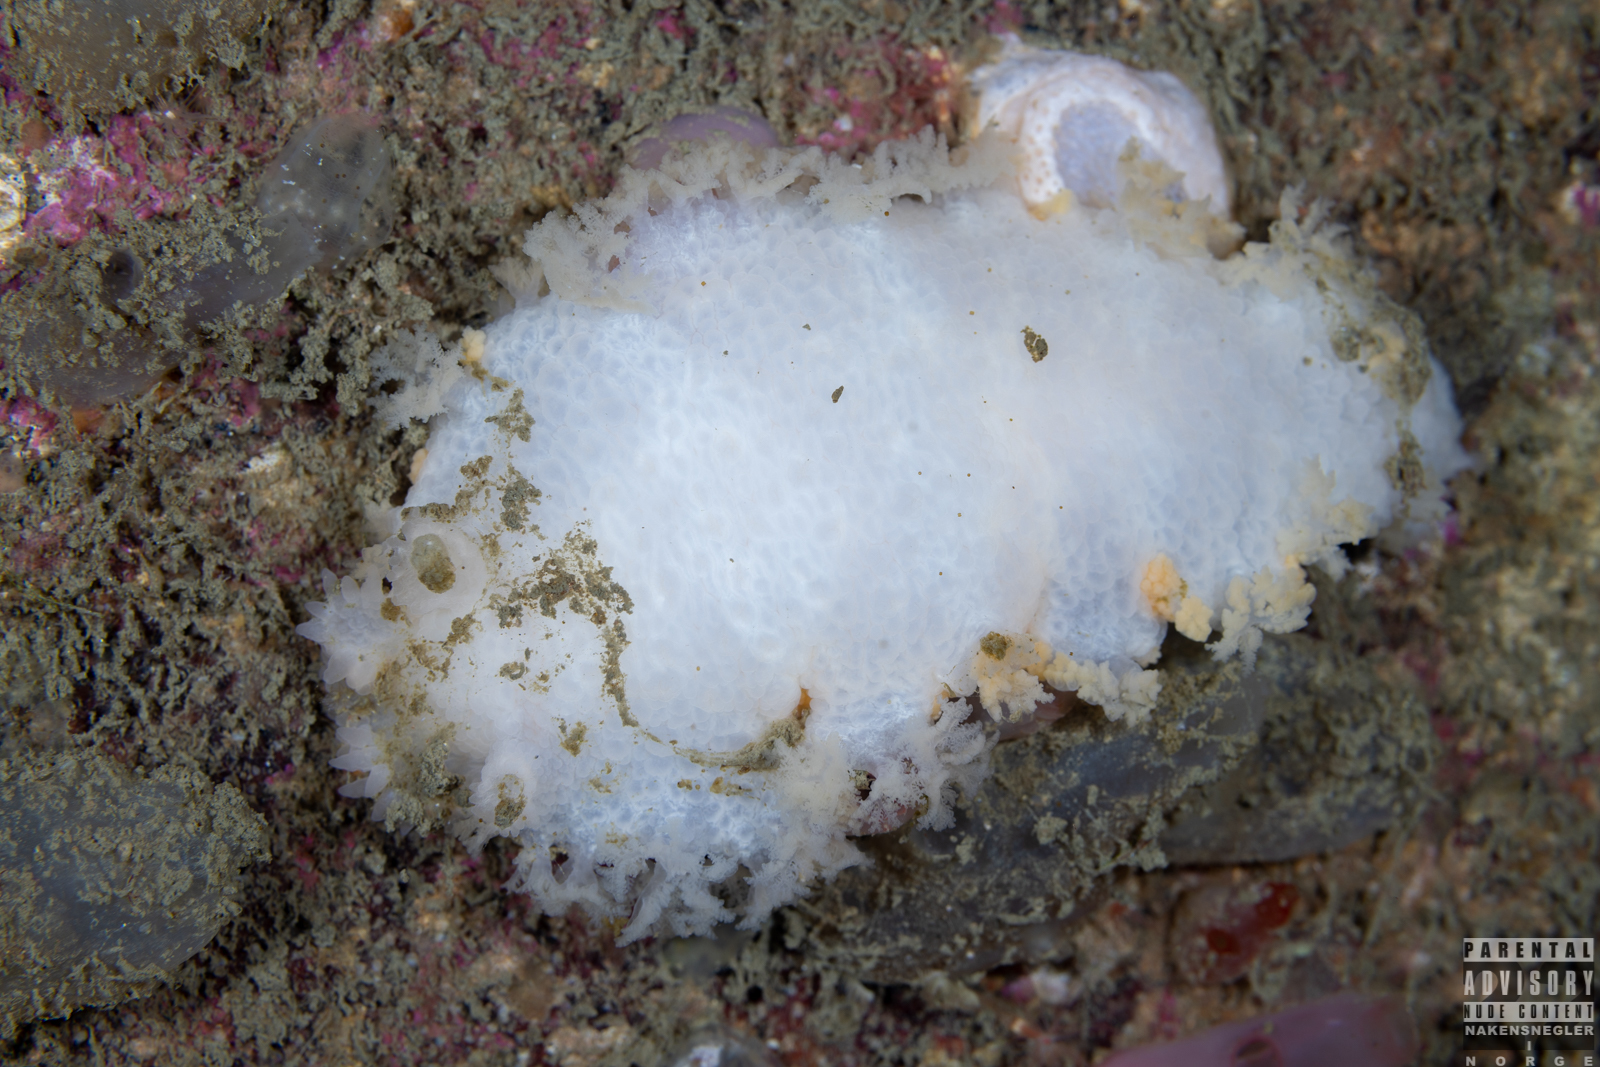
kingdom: Animalia
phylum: Mollusca
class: Gastropoda
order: Nudibranchia
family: Tritoniidae
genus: Tritonia
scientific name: Tritonia hombergii
